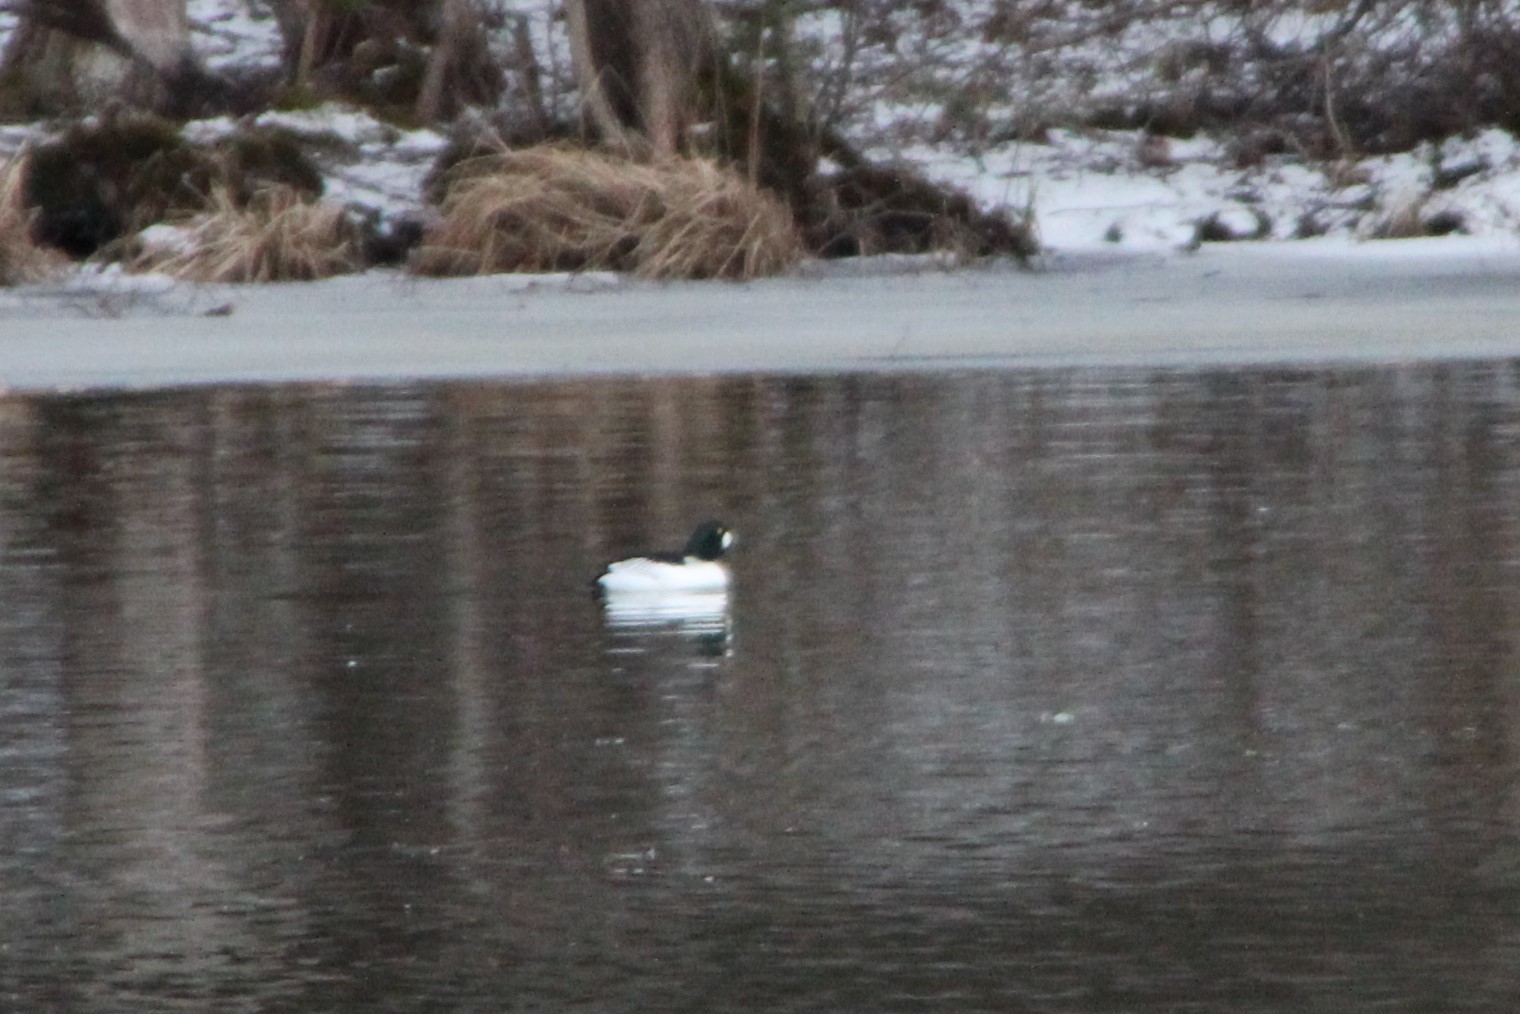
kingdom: Animalia
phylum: Chordata
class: Aves
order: Anseriformes
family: Anatidae
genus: Bucephala
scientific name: Bucephala clangula
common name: Common goldeneye
